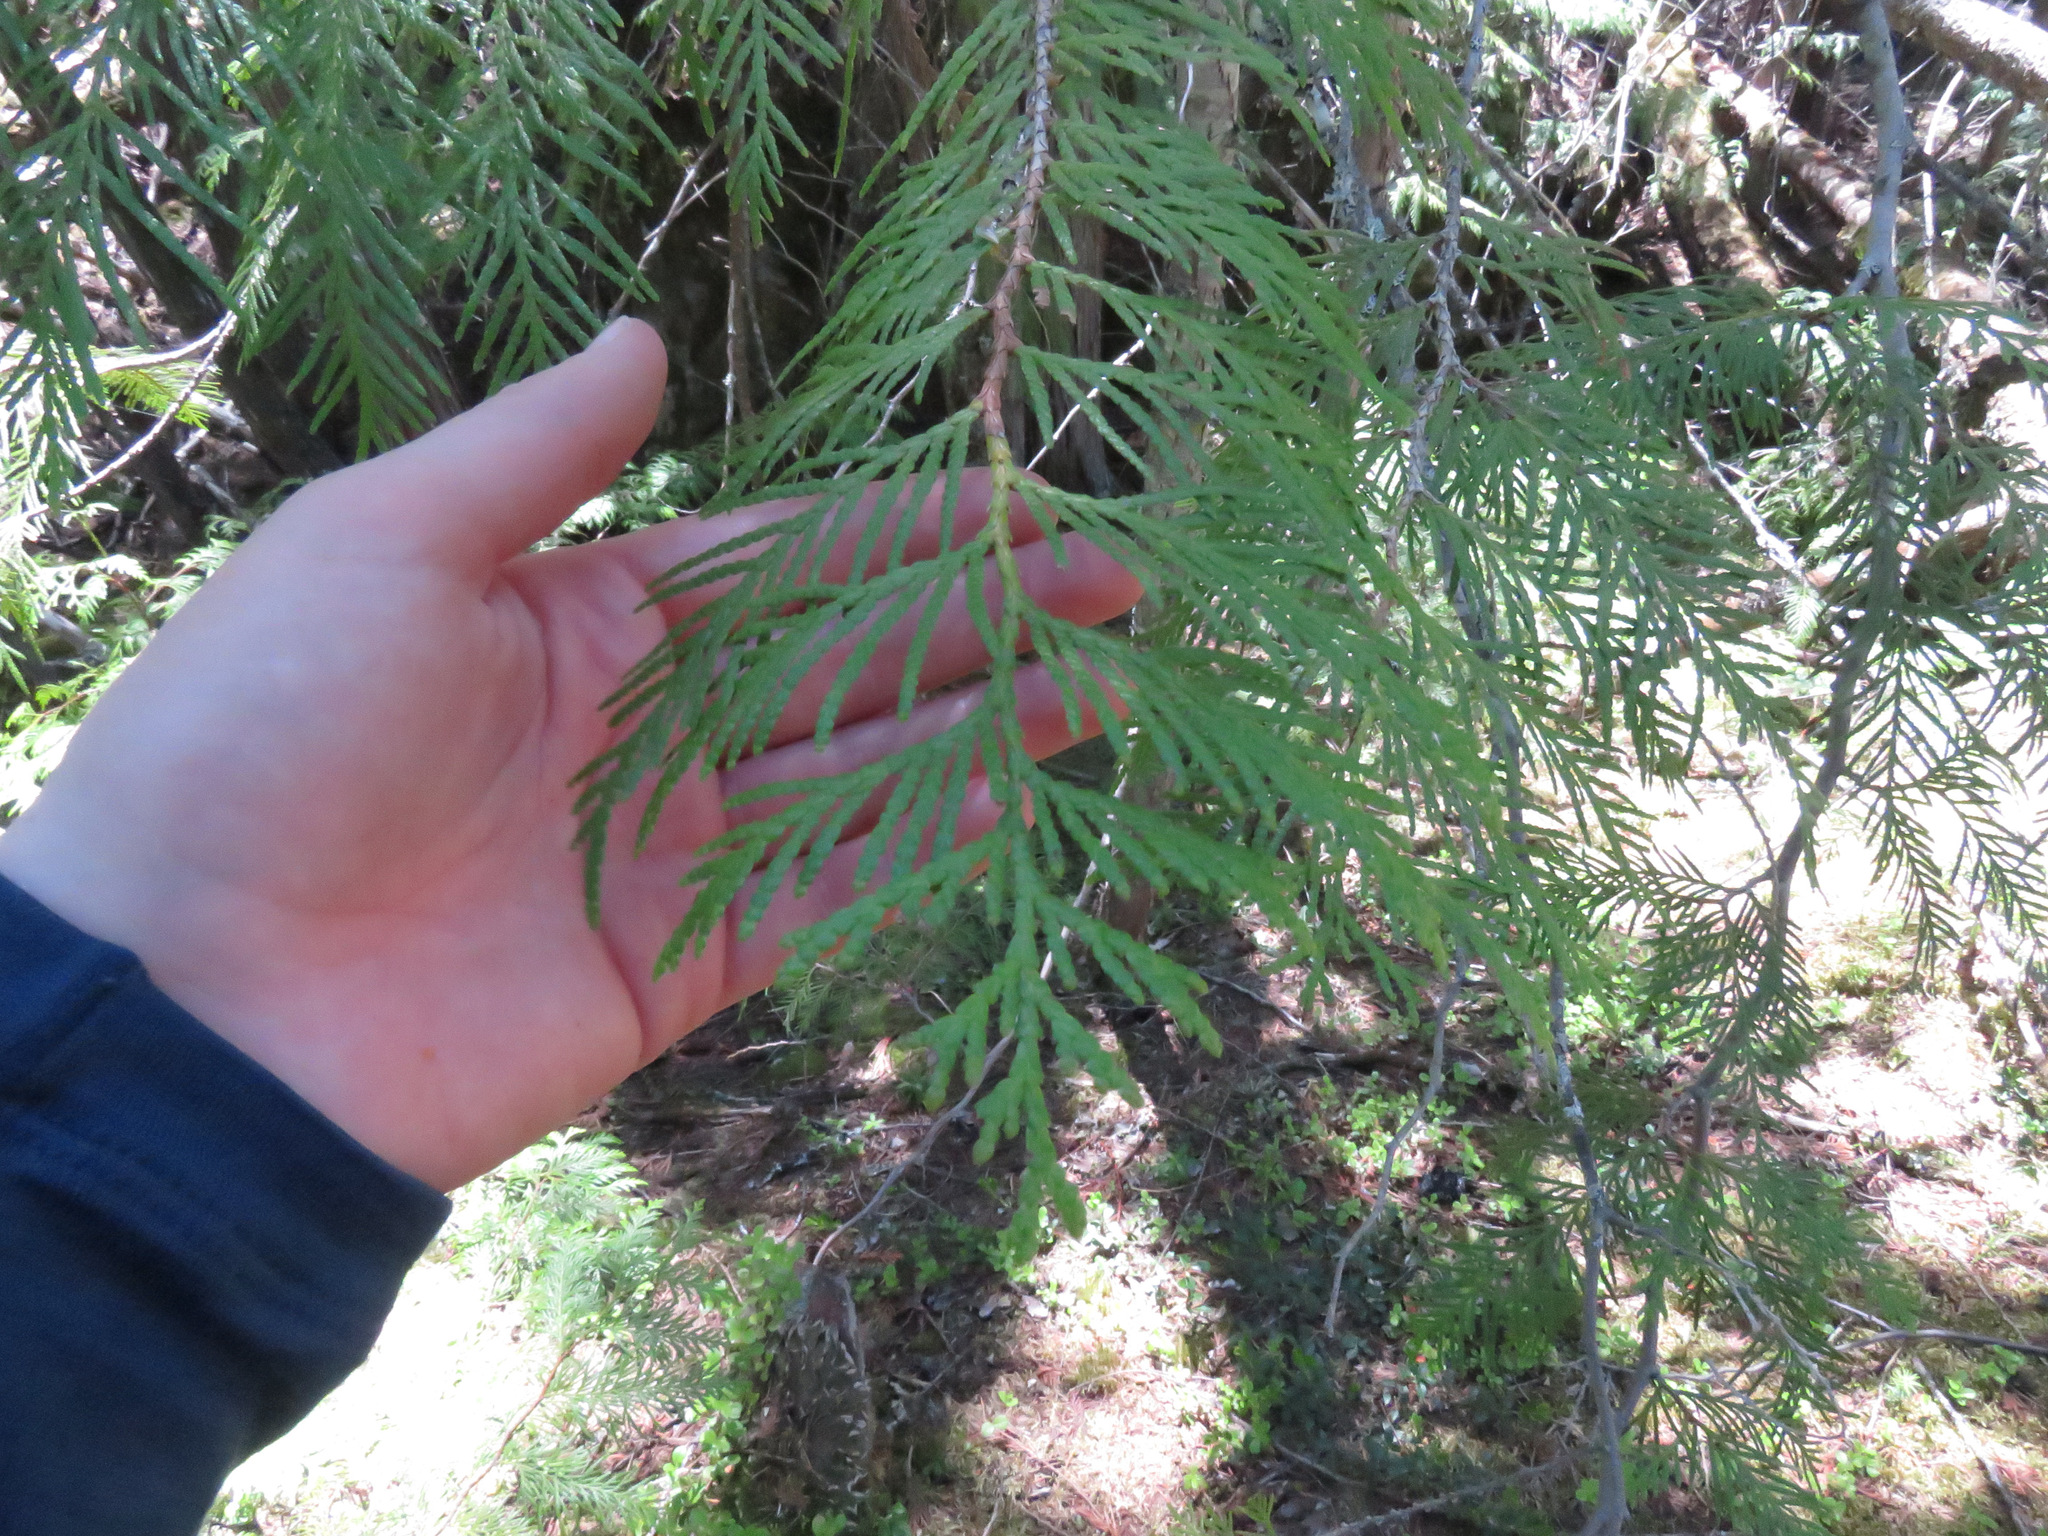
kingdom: Plantae
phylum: Tracheophyta
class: Pinopsida
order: Pinales
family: Cupressaceae
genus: Thuja
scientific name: Thuja plicata
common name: Western red-cedar
